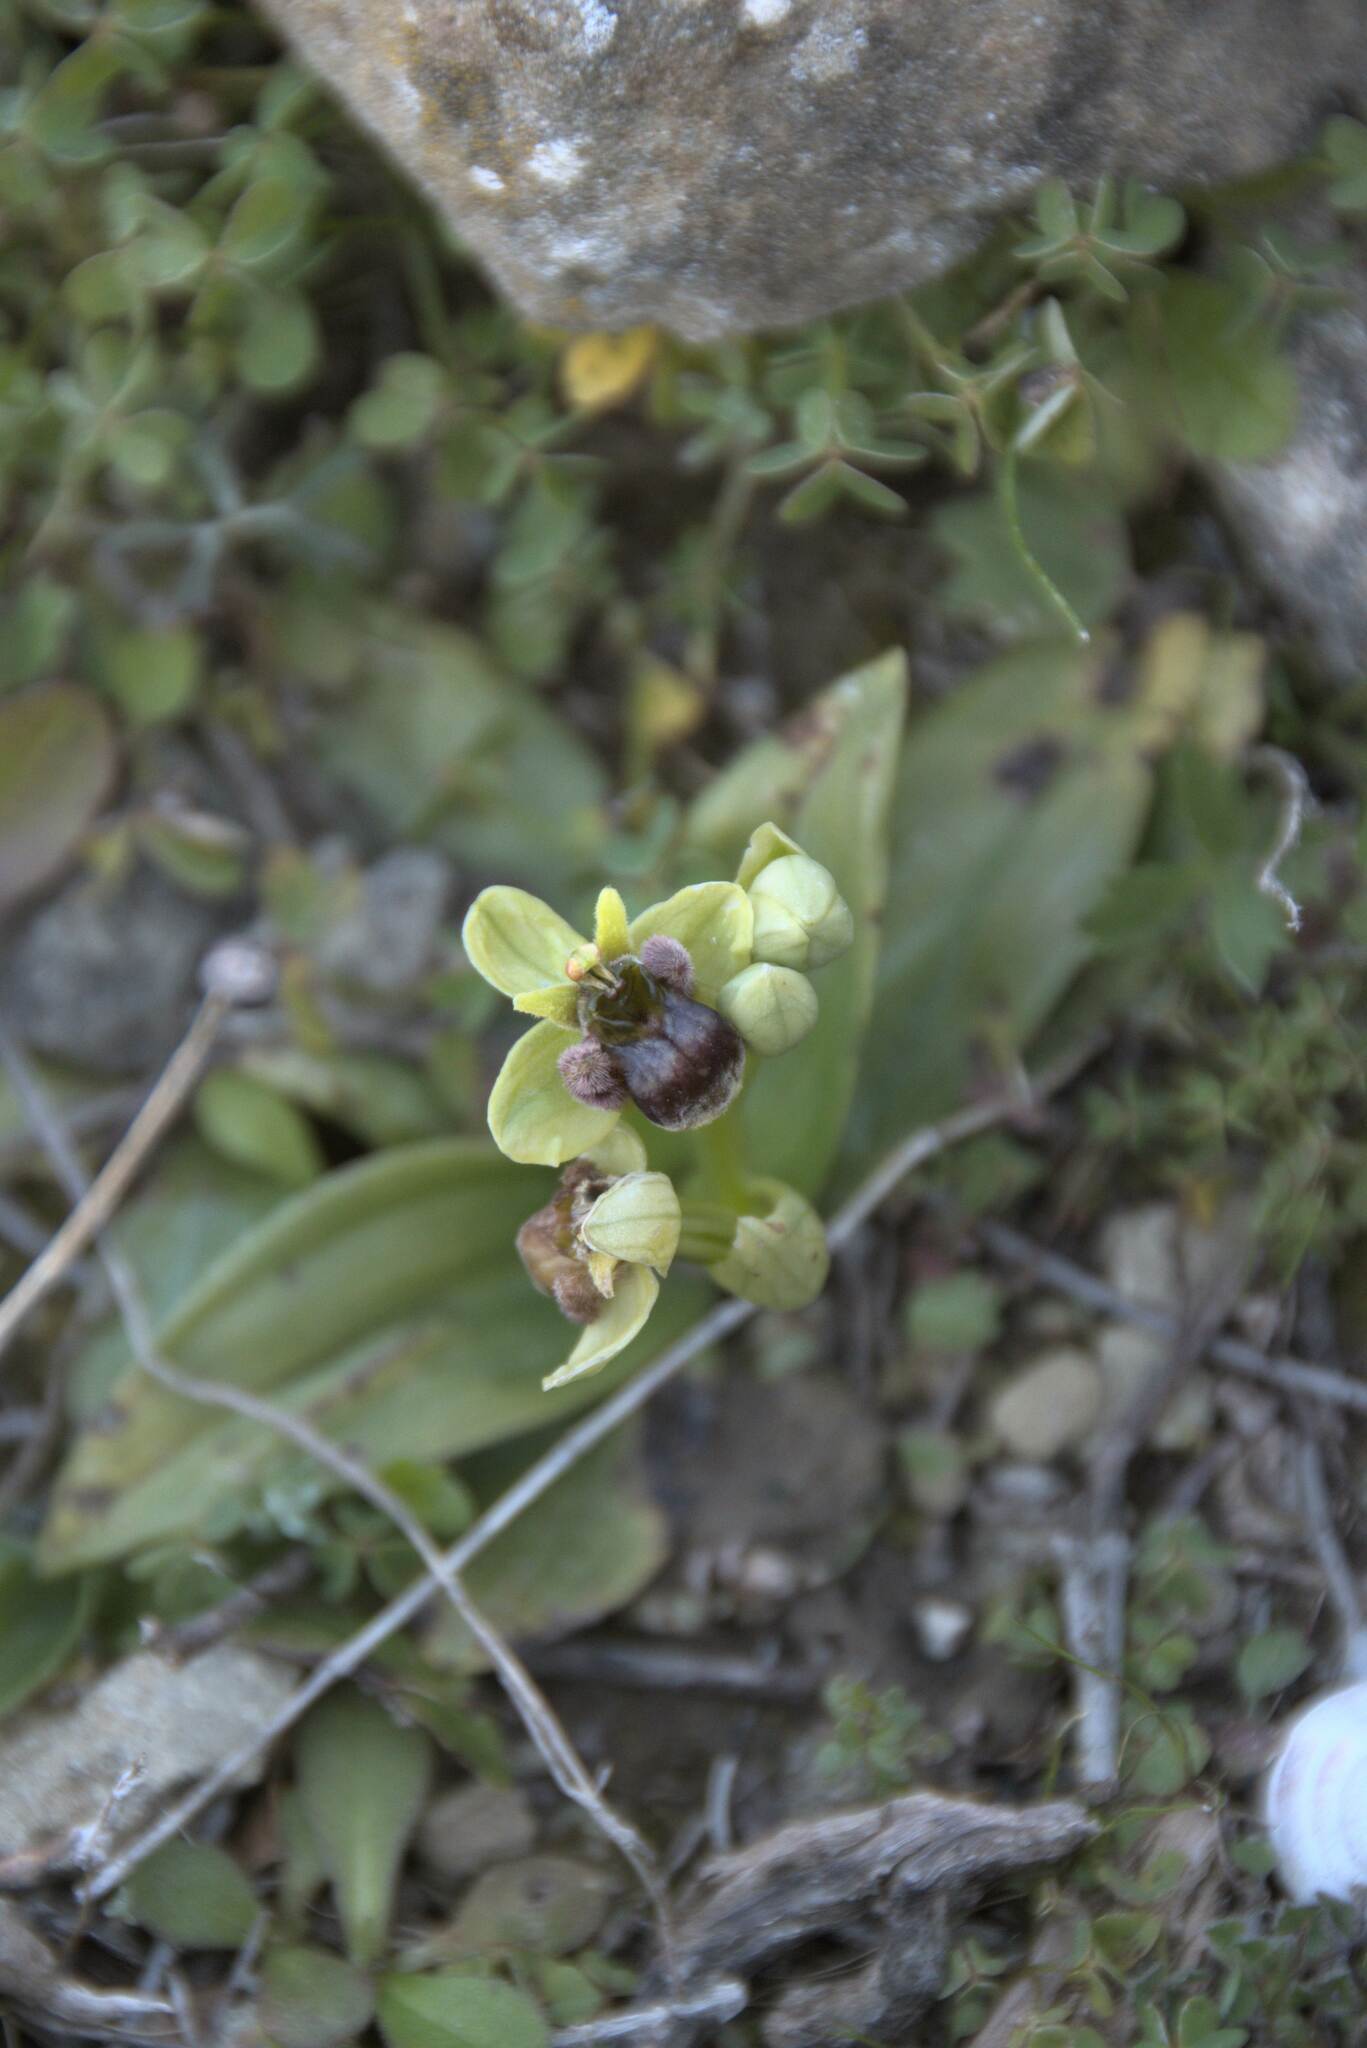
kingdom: Plantae
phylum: Tracheophyta
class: Liliopsida
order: Asparagales
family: Orchidaceae
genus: Ophrys
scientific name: Ophrys bombyliflora
